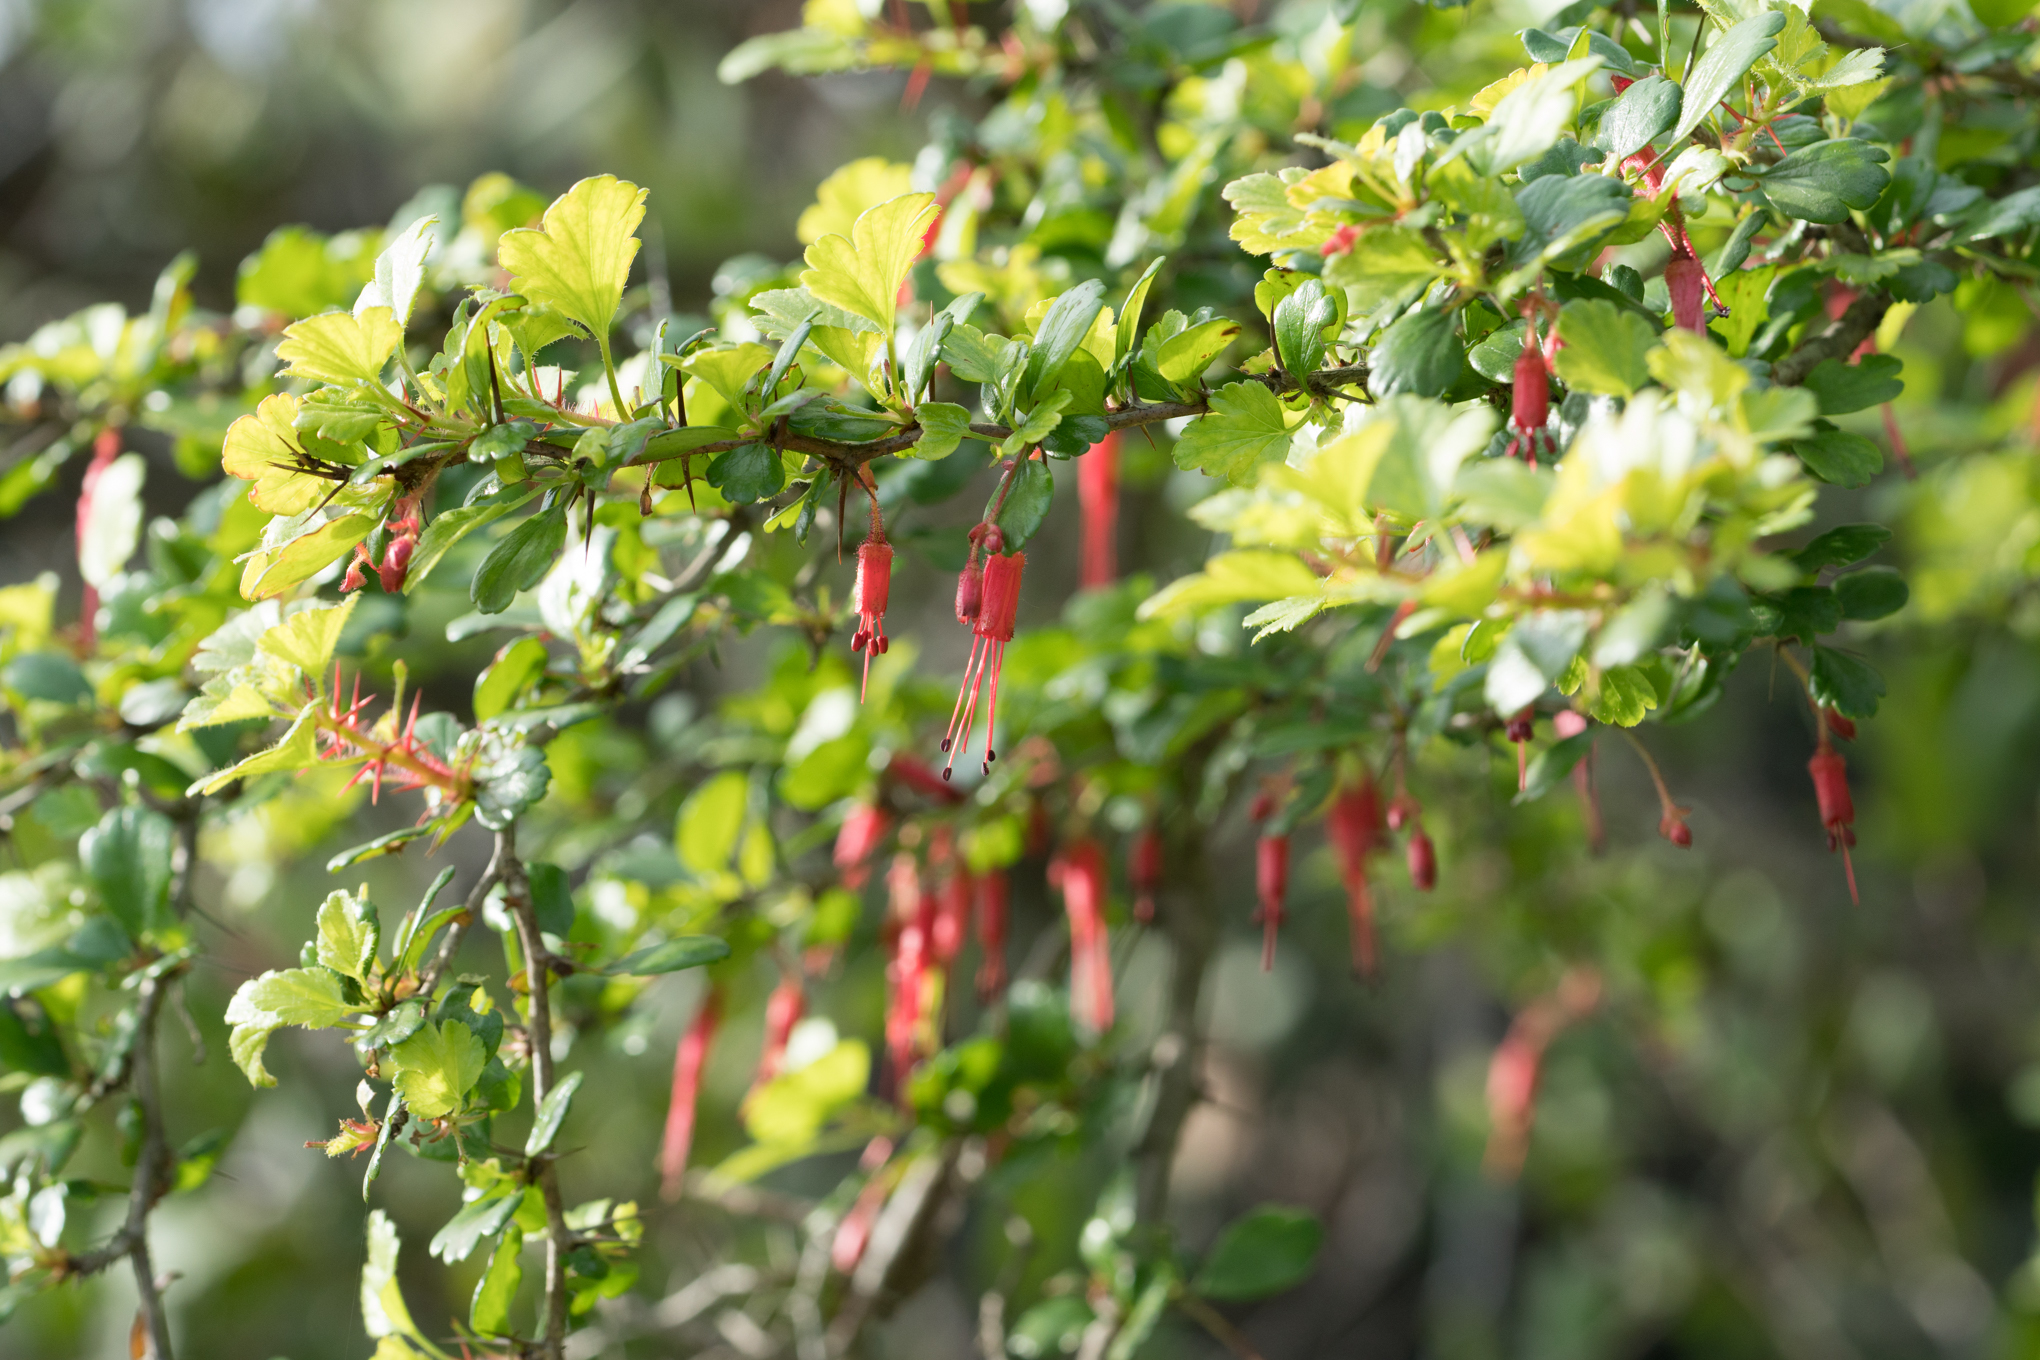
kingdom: Plantae
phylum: Tracheophyta
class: Magnoliopsida
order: Saxifragales
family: Grossulariaceae
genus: Ribes
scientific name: Ribes speciosum
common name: Fuchsia-flower gooseberry
